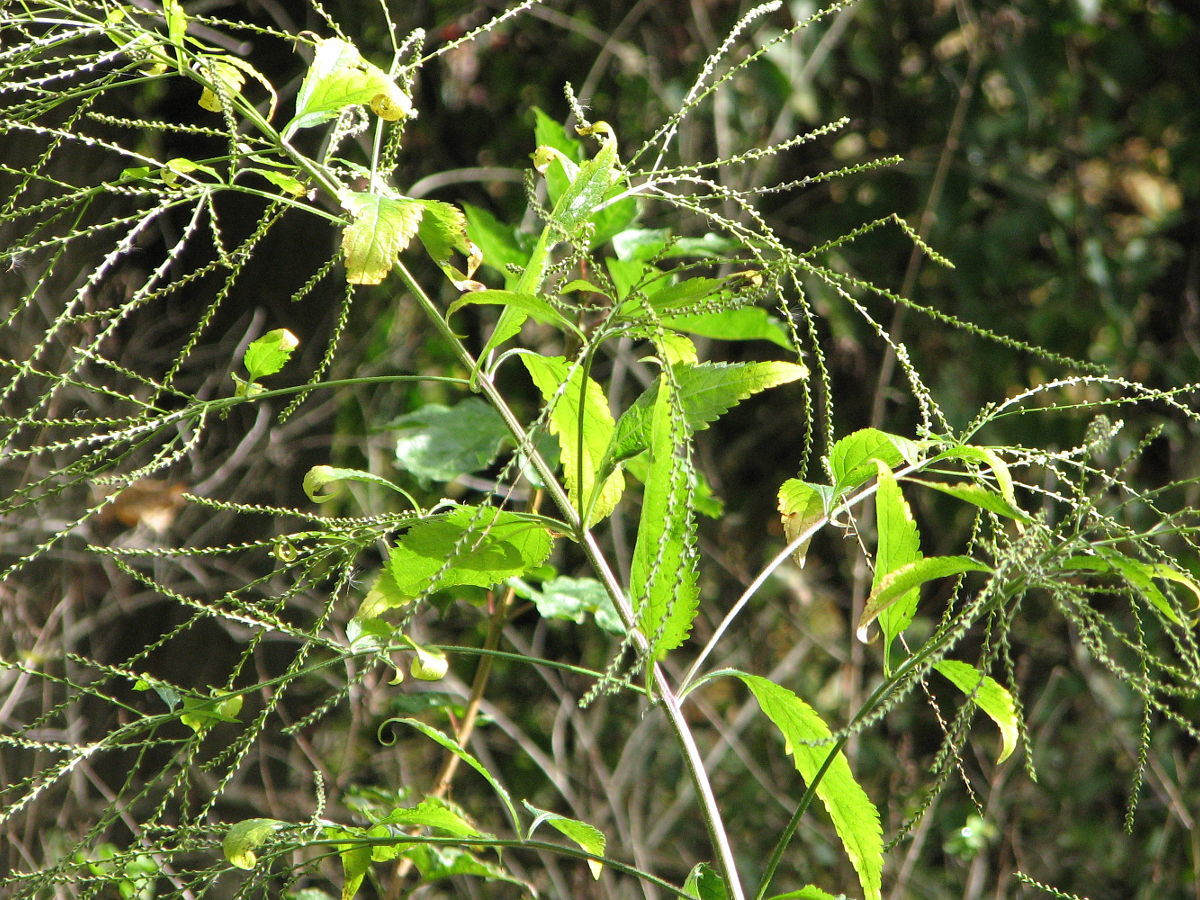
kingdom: Plantae
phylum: Tracheophyta
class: Magnoliopsida
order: Lamiales
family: Verbenaceae
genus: Verbena
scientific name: Verbena urticifolia
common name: Nettle-leaved vervain
